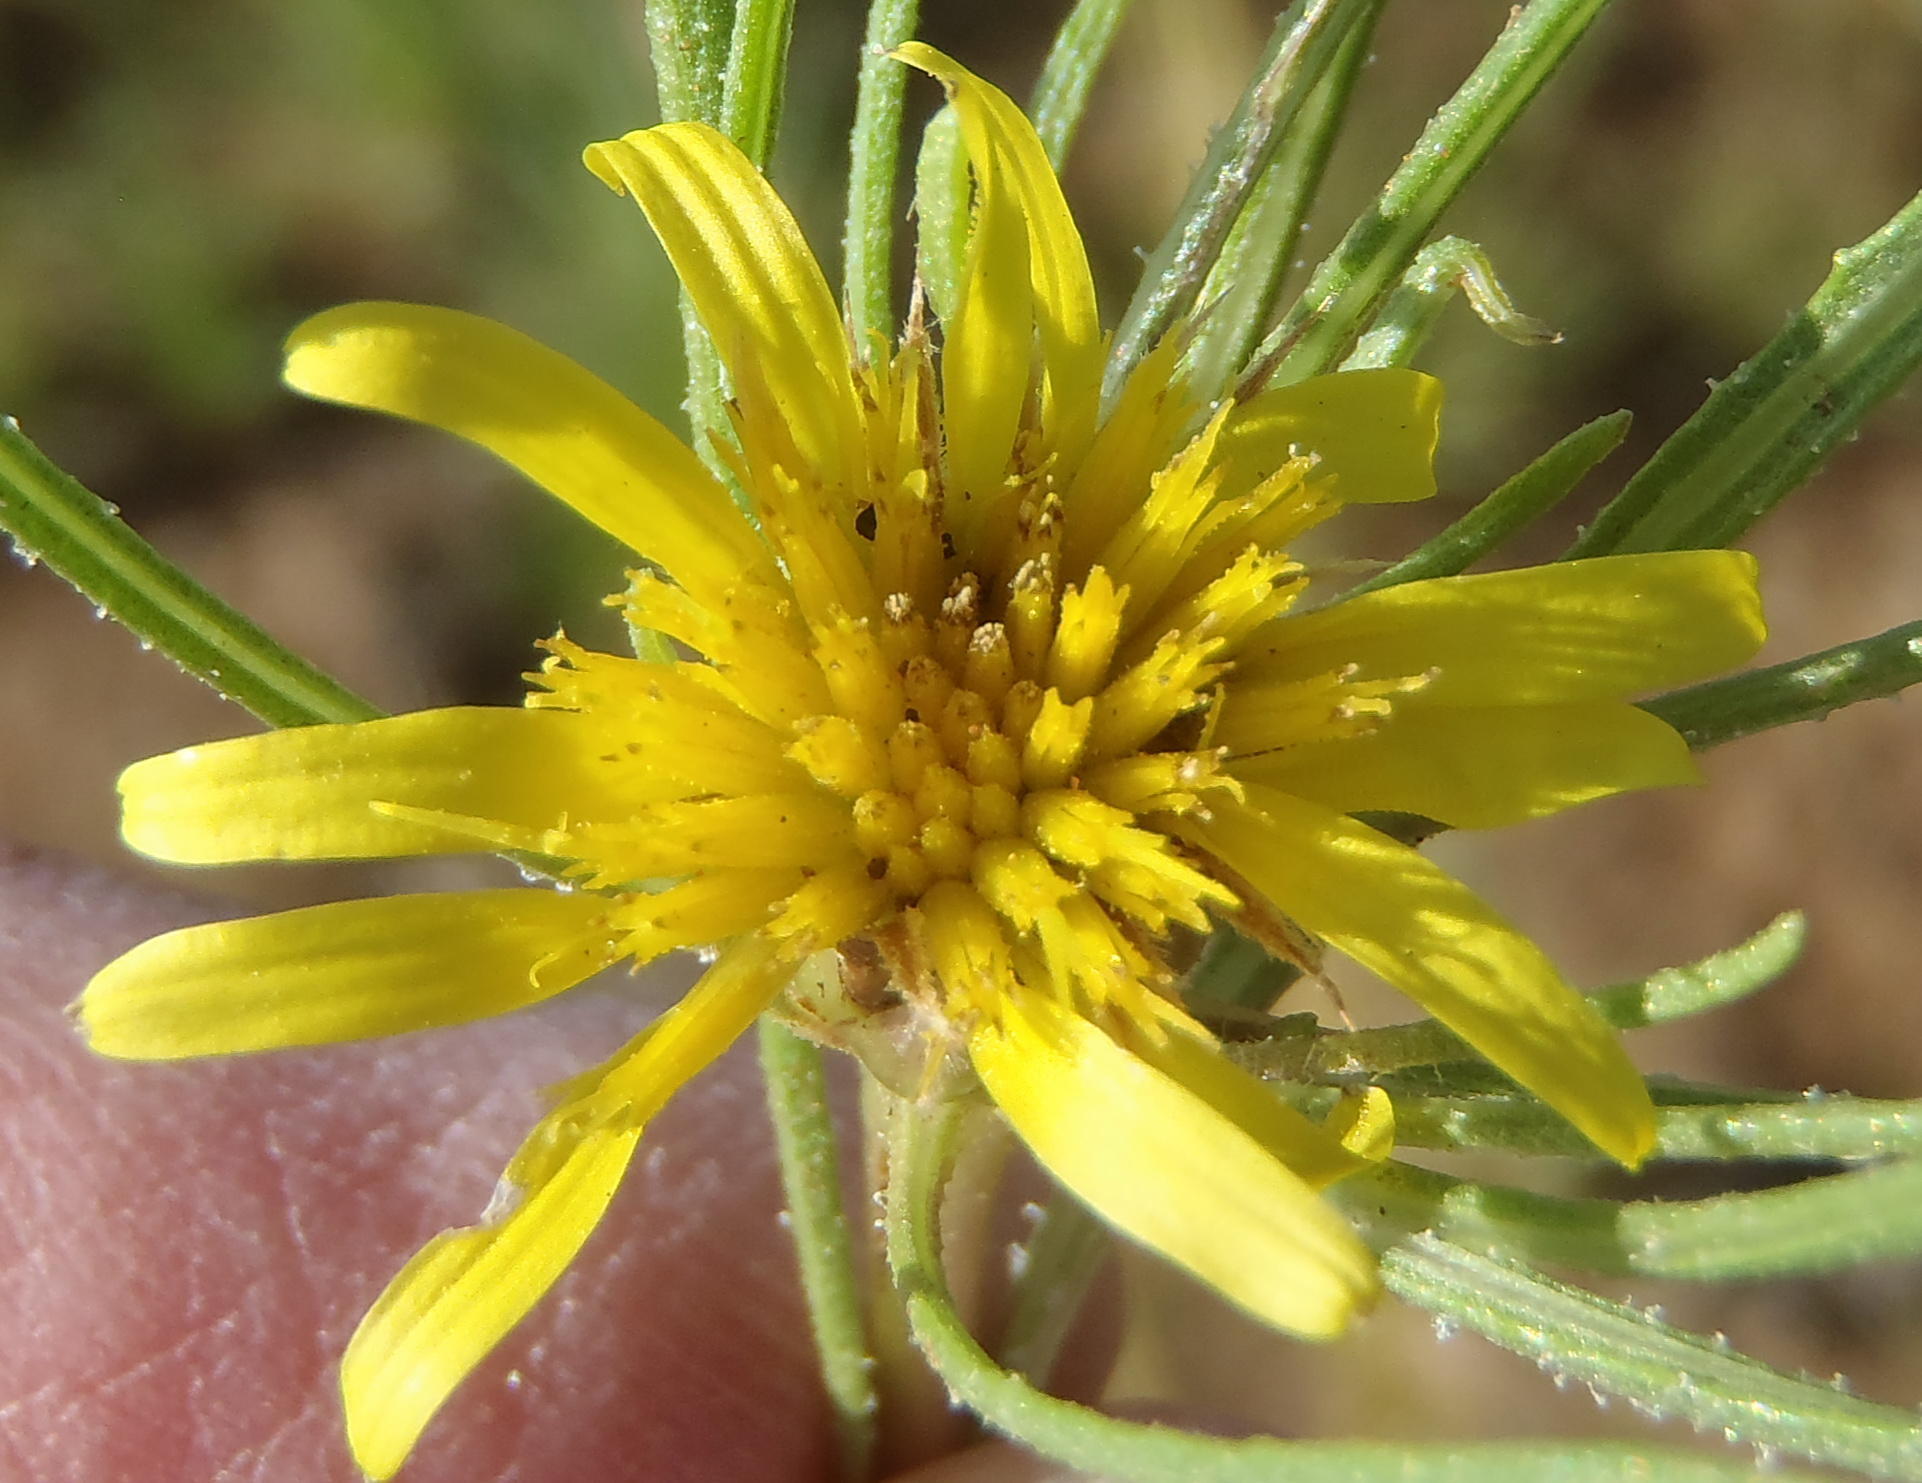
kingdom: Plantae
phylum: Tracheophyta
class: Magnoliopsida
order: Asterales
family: Asteraceae
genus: Geigeria
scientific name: Geigeria burkei
